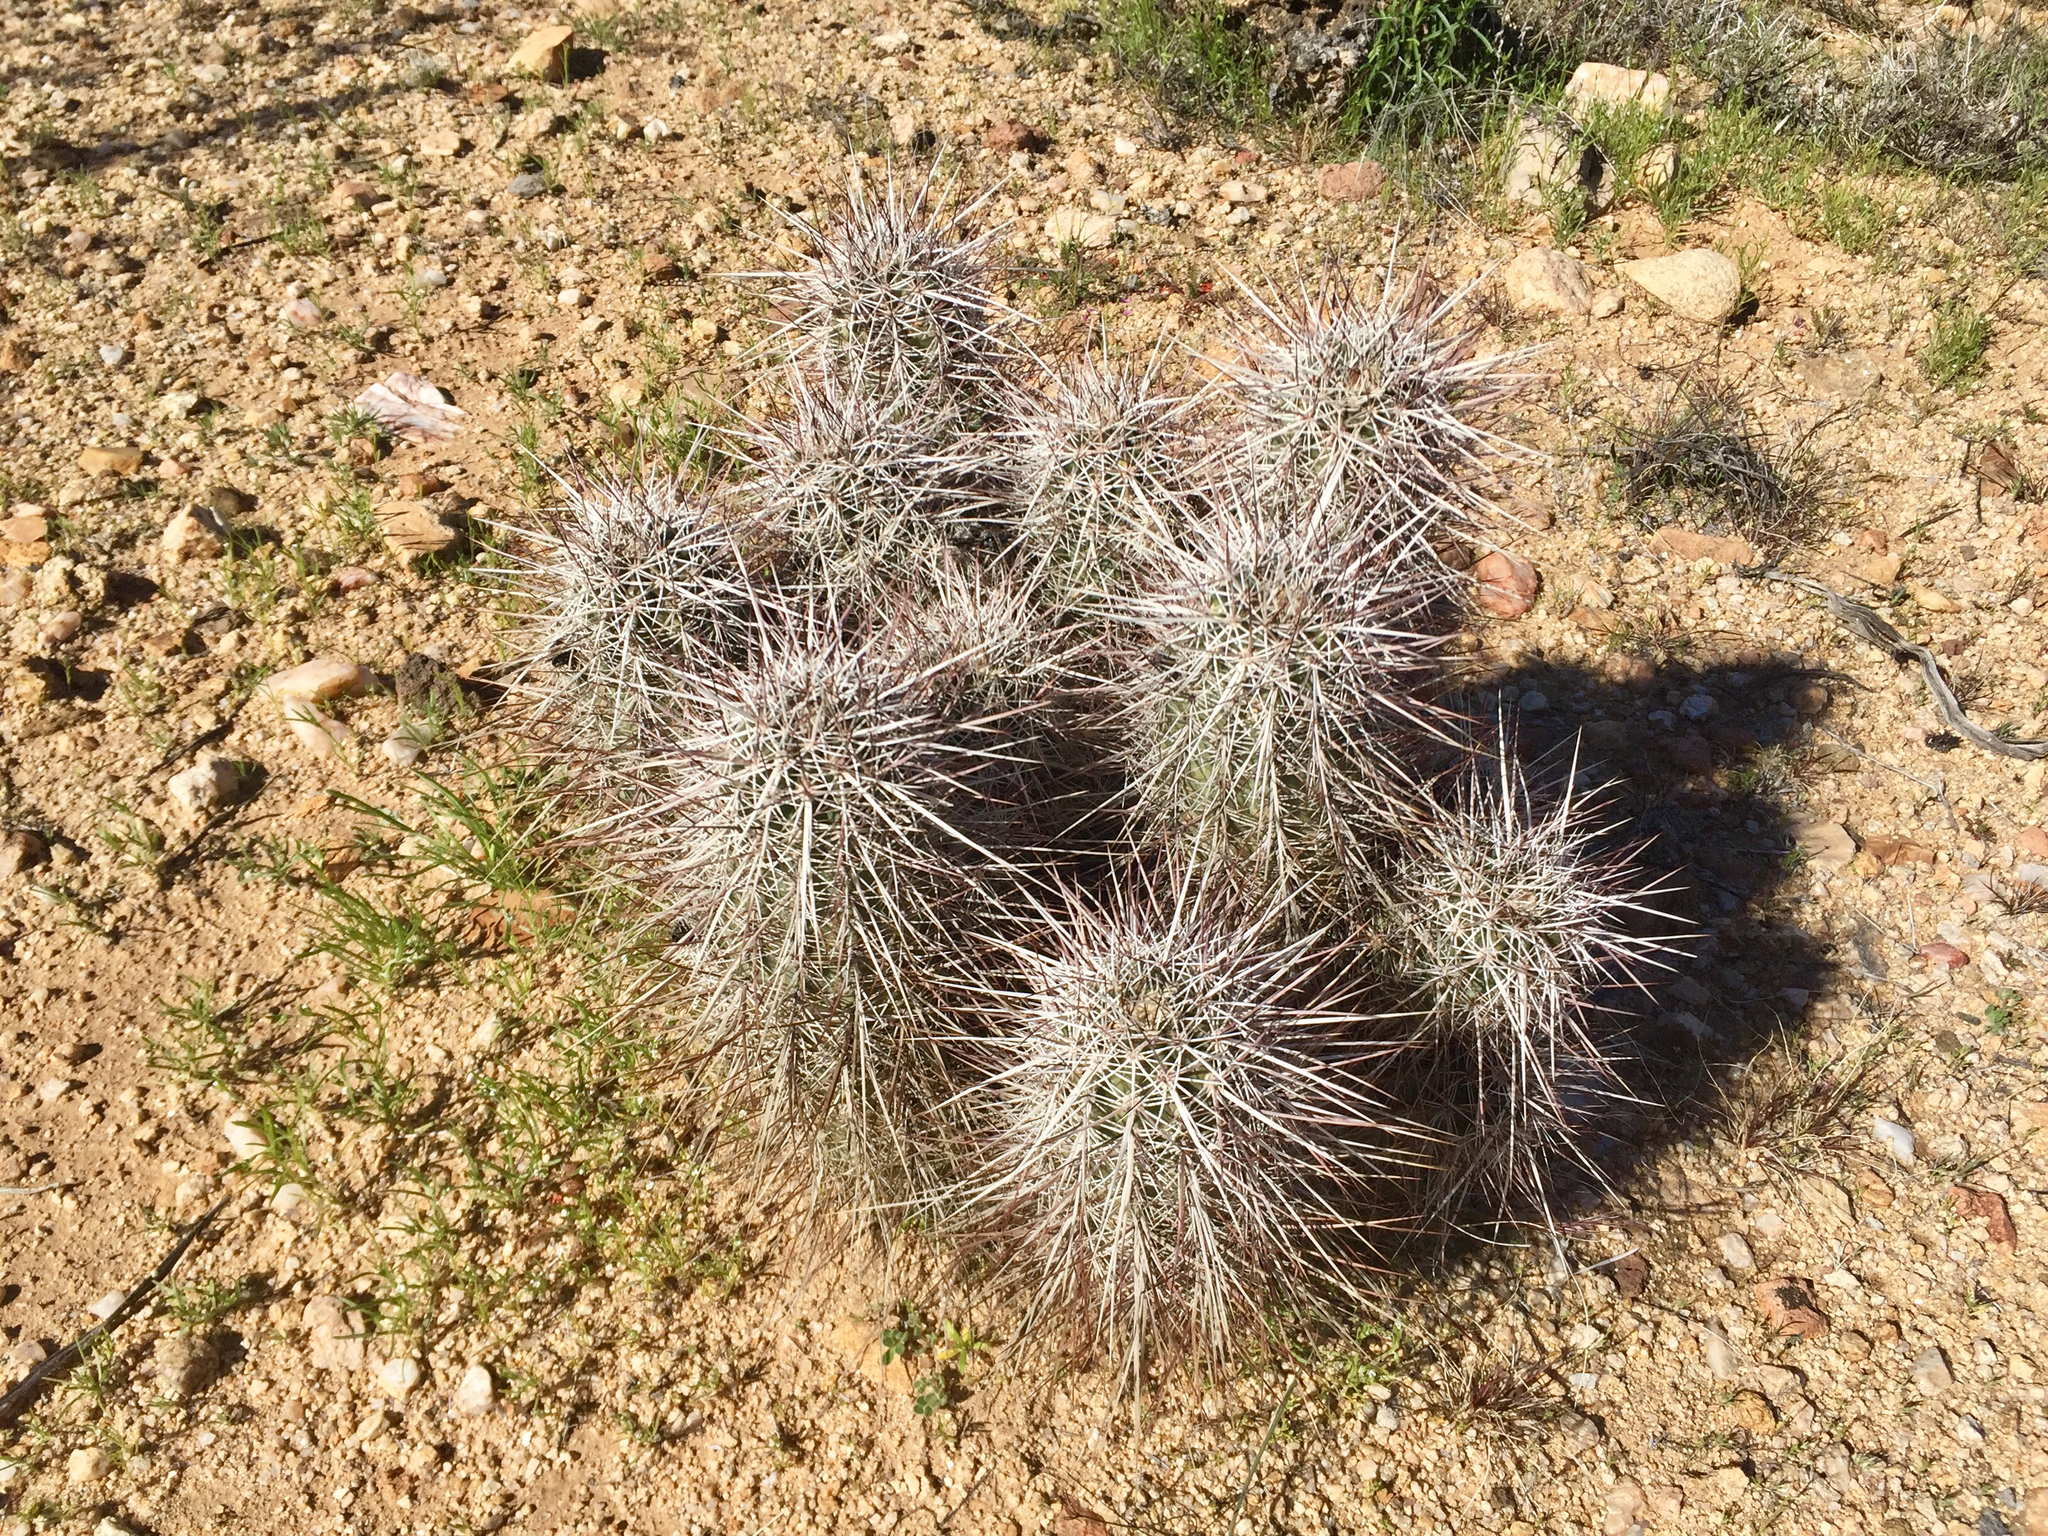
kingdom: Plantae
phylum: Tracheophyta
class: Magnoliopsida
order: Caryophyllales
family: Cactaceae
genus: Echinocereus
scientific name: Echinocereus engelmannii
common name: Engelmann's hedgehog cactus
